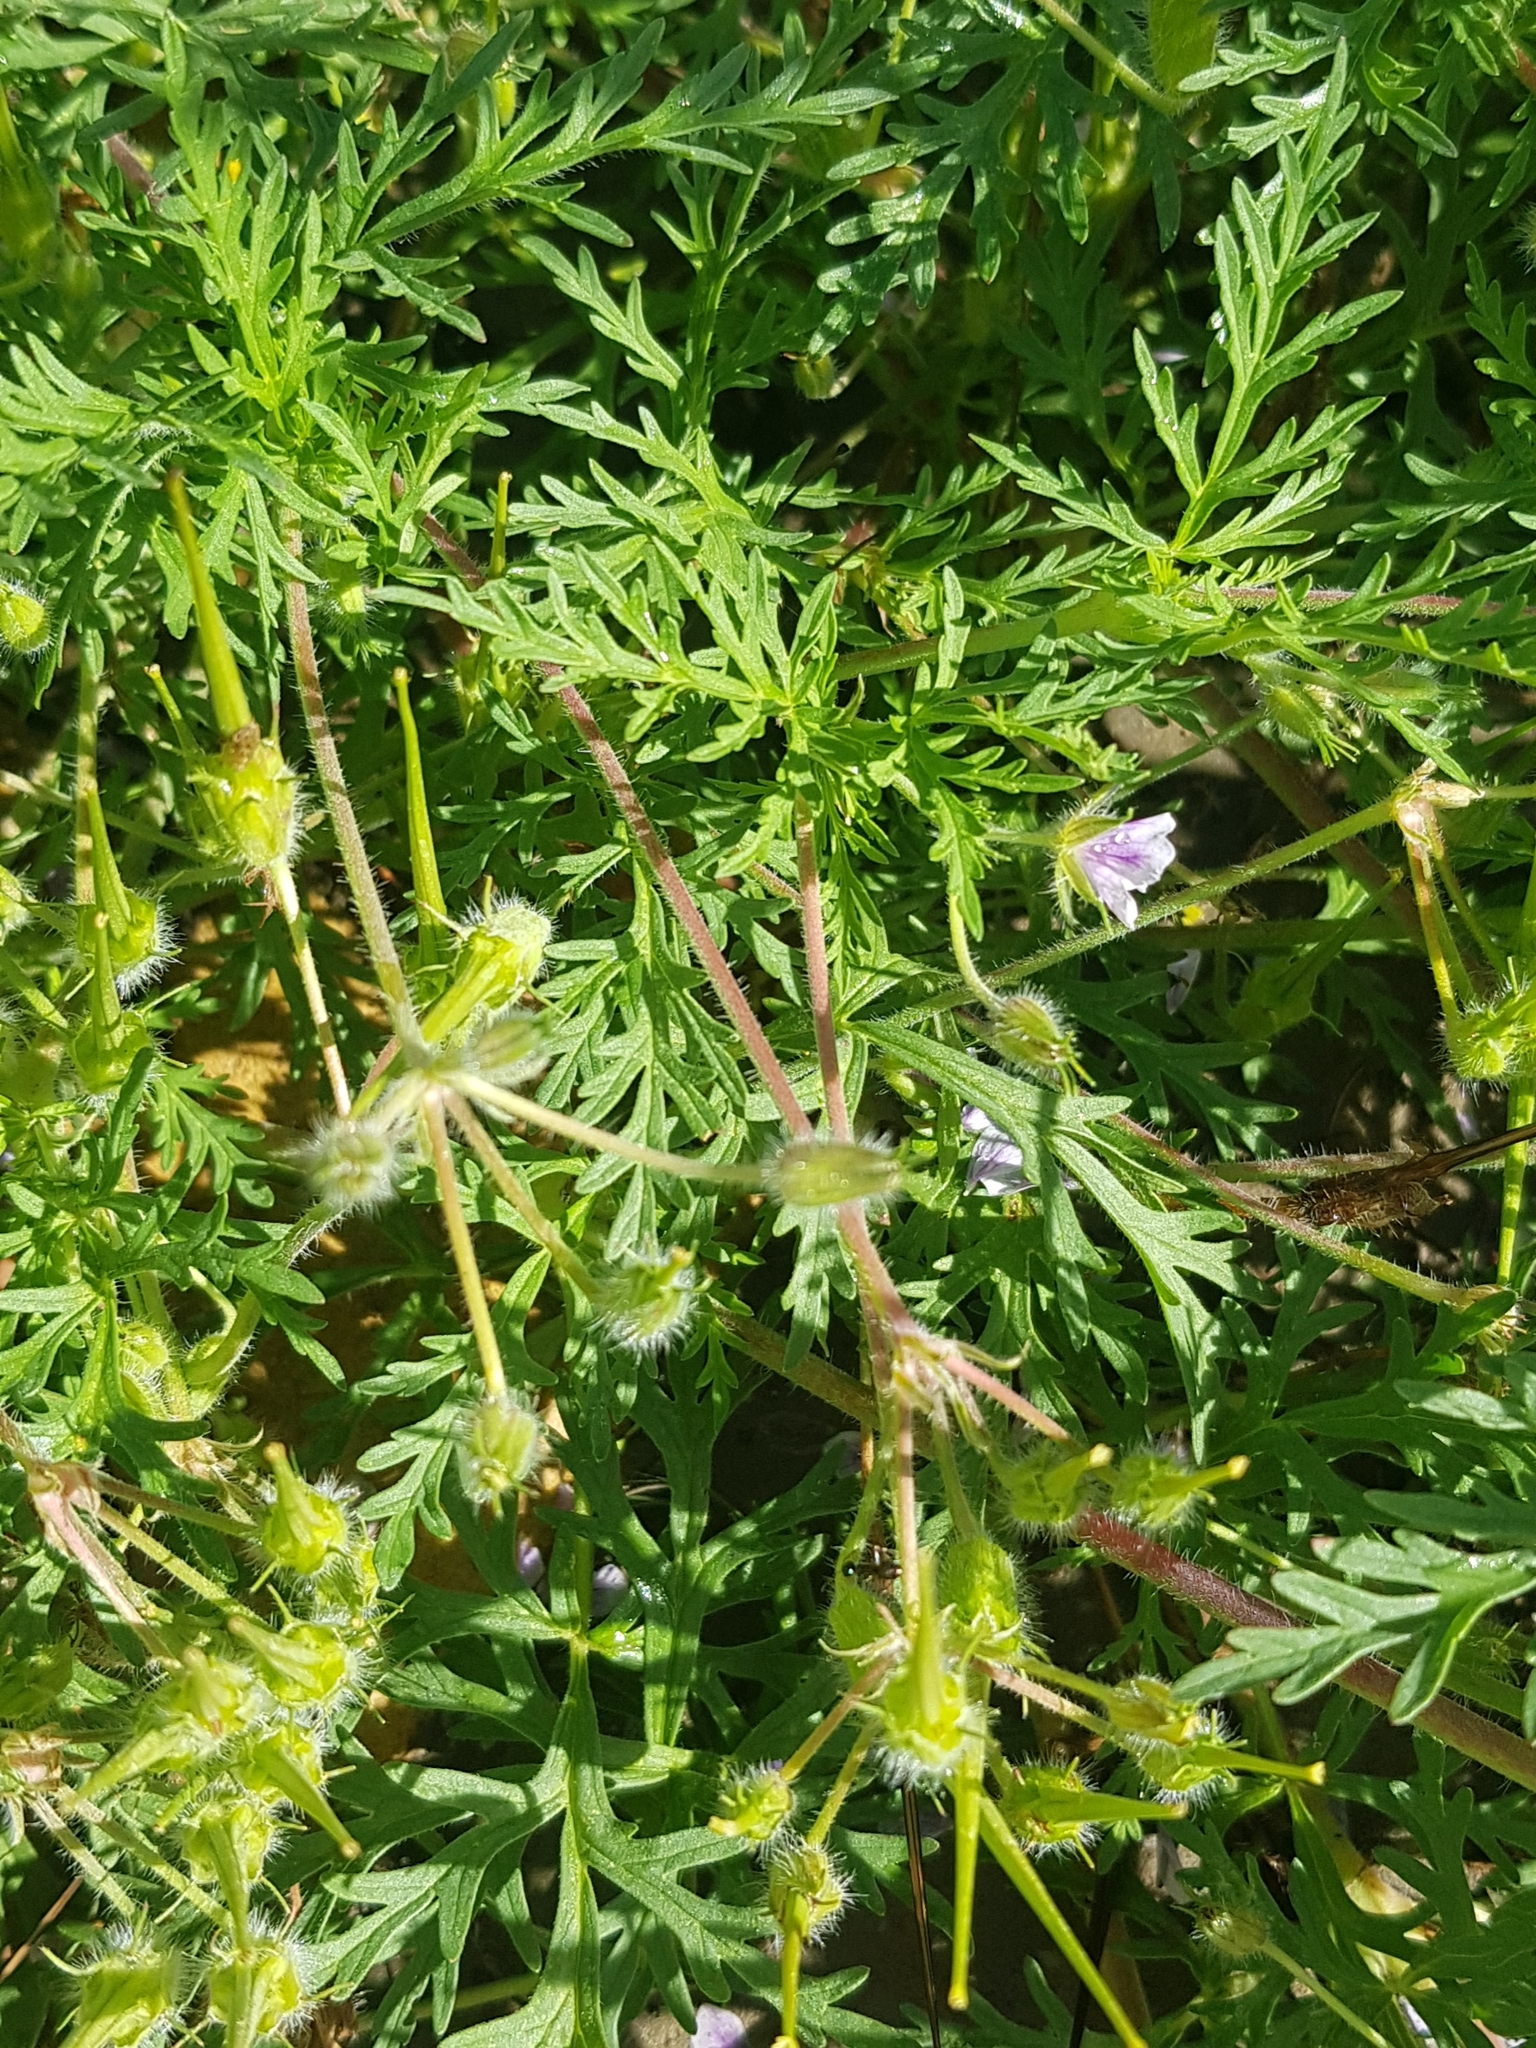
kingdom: Plantae
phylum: Tracheophyta
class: Magnoliopsida
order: Geraniales
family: Geraniaceae
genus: Erodium
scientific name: Erodium stephanianum
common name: Stephen's stork's bill
